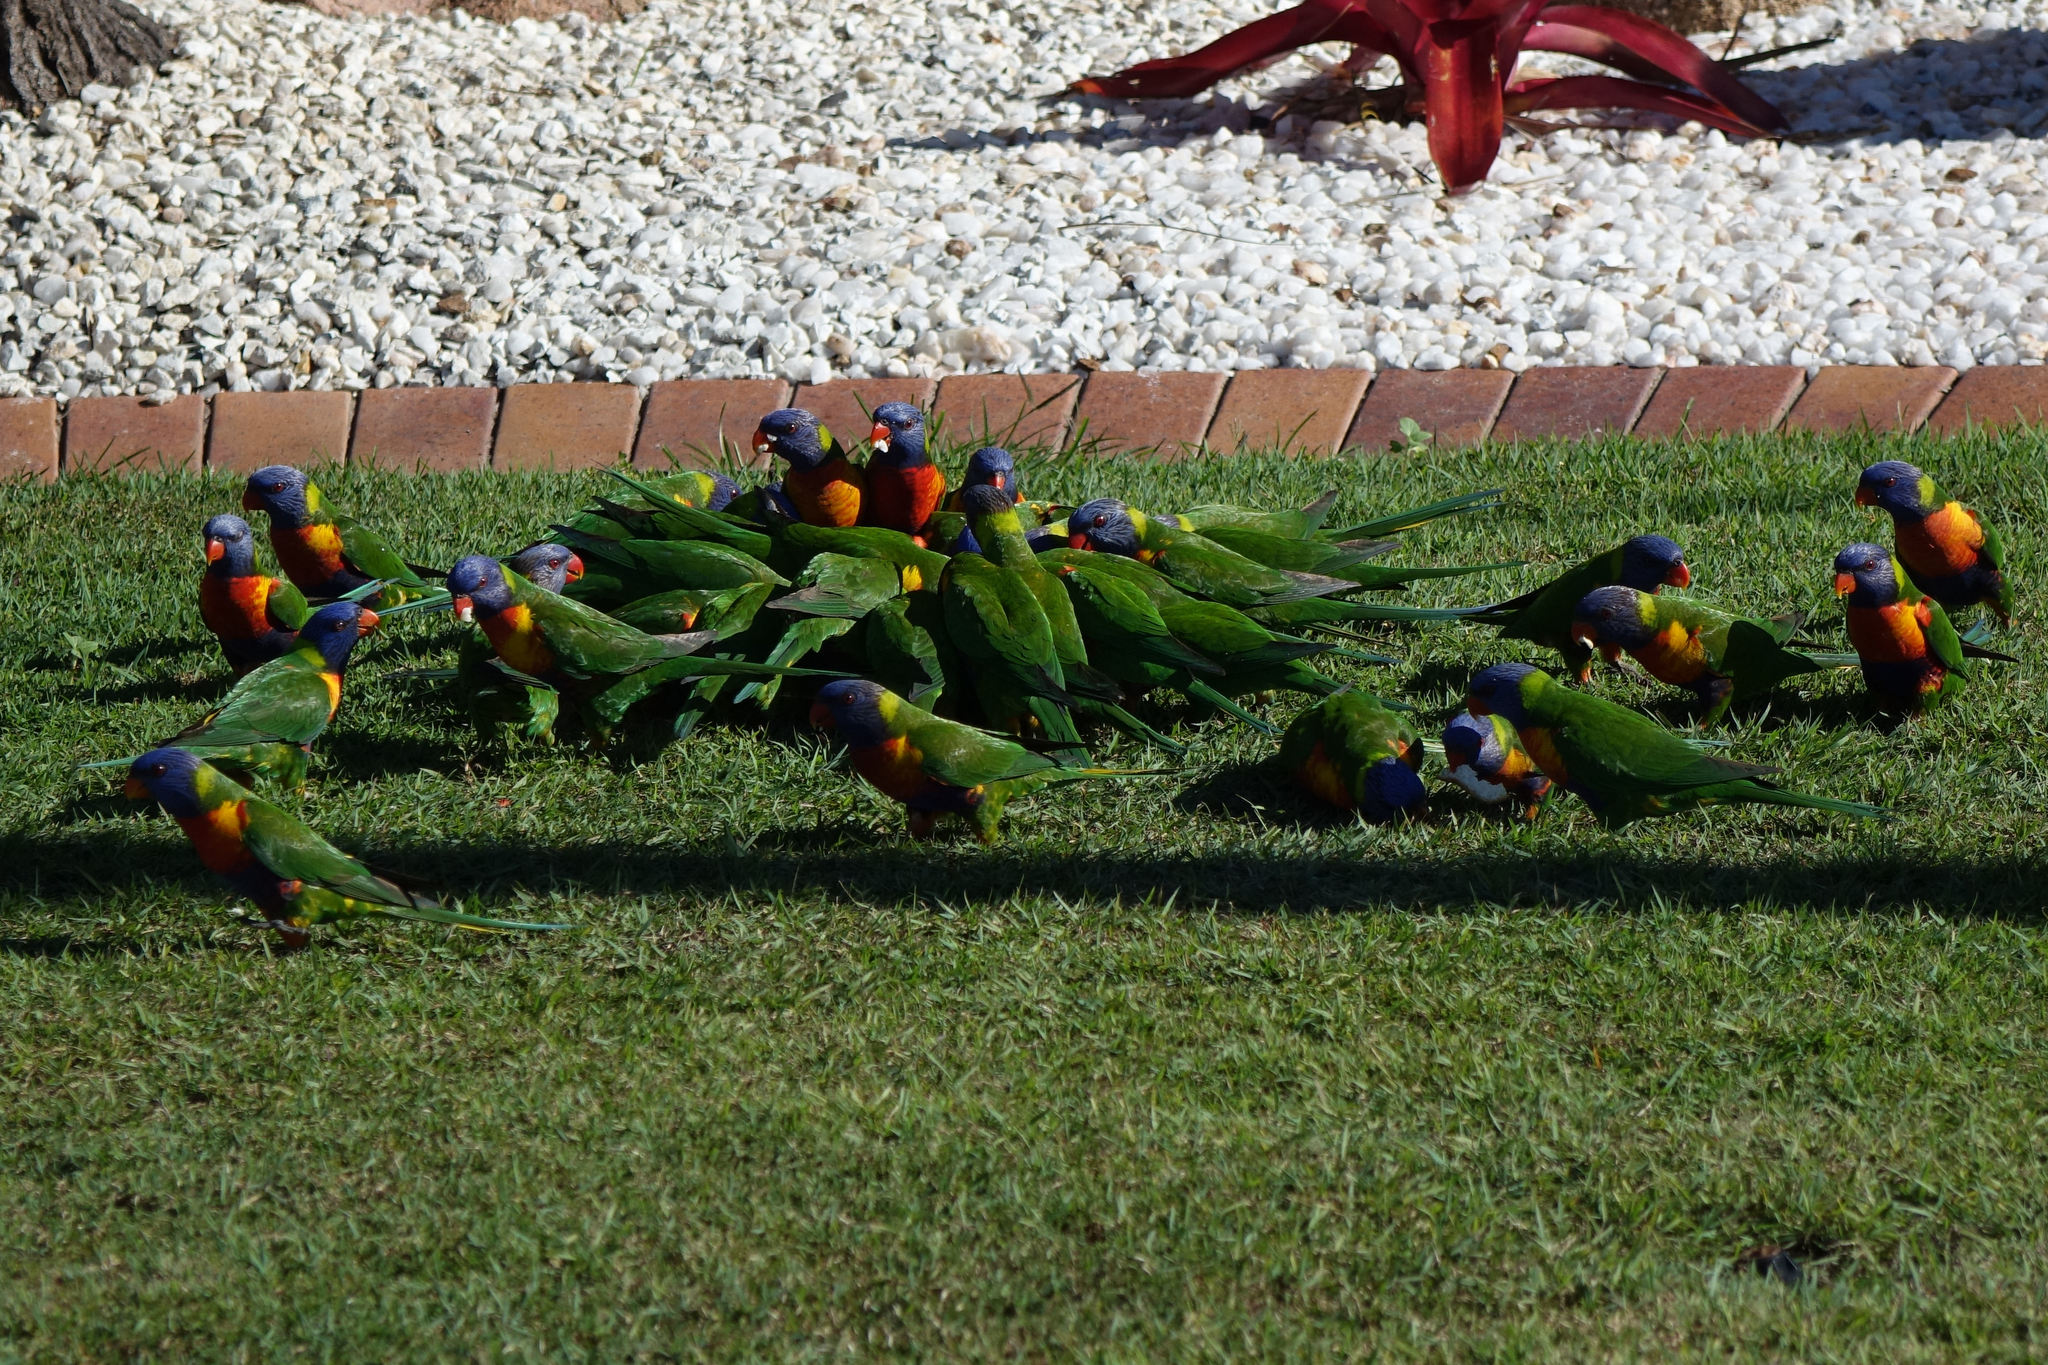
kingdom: Animalia
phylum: Chordata
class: Aves
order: Psittaciformes
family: Psittacidae
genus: Trichoglossus
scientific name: Trichoglossus haematodus
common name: Coconut lorikeet
